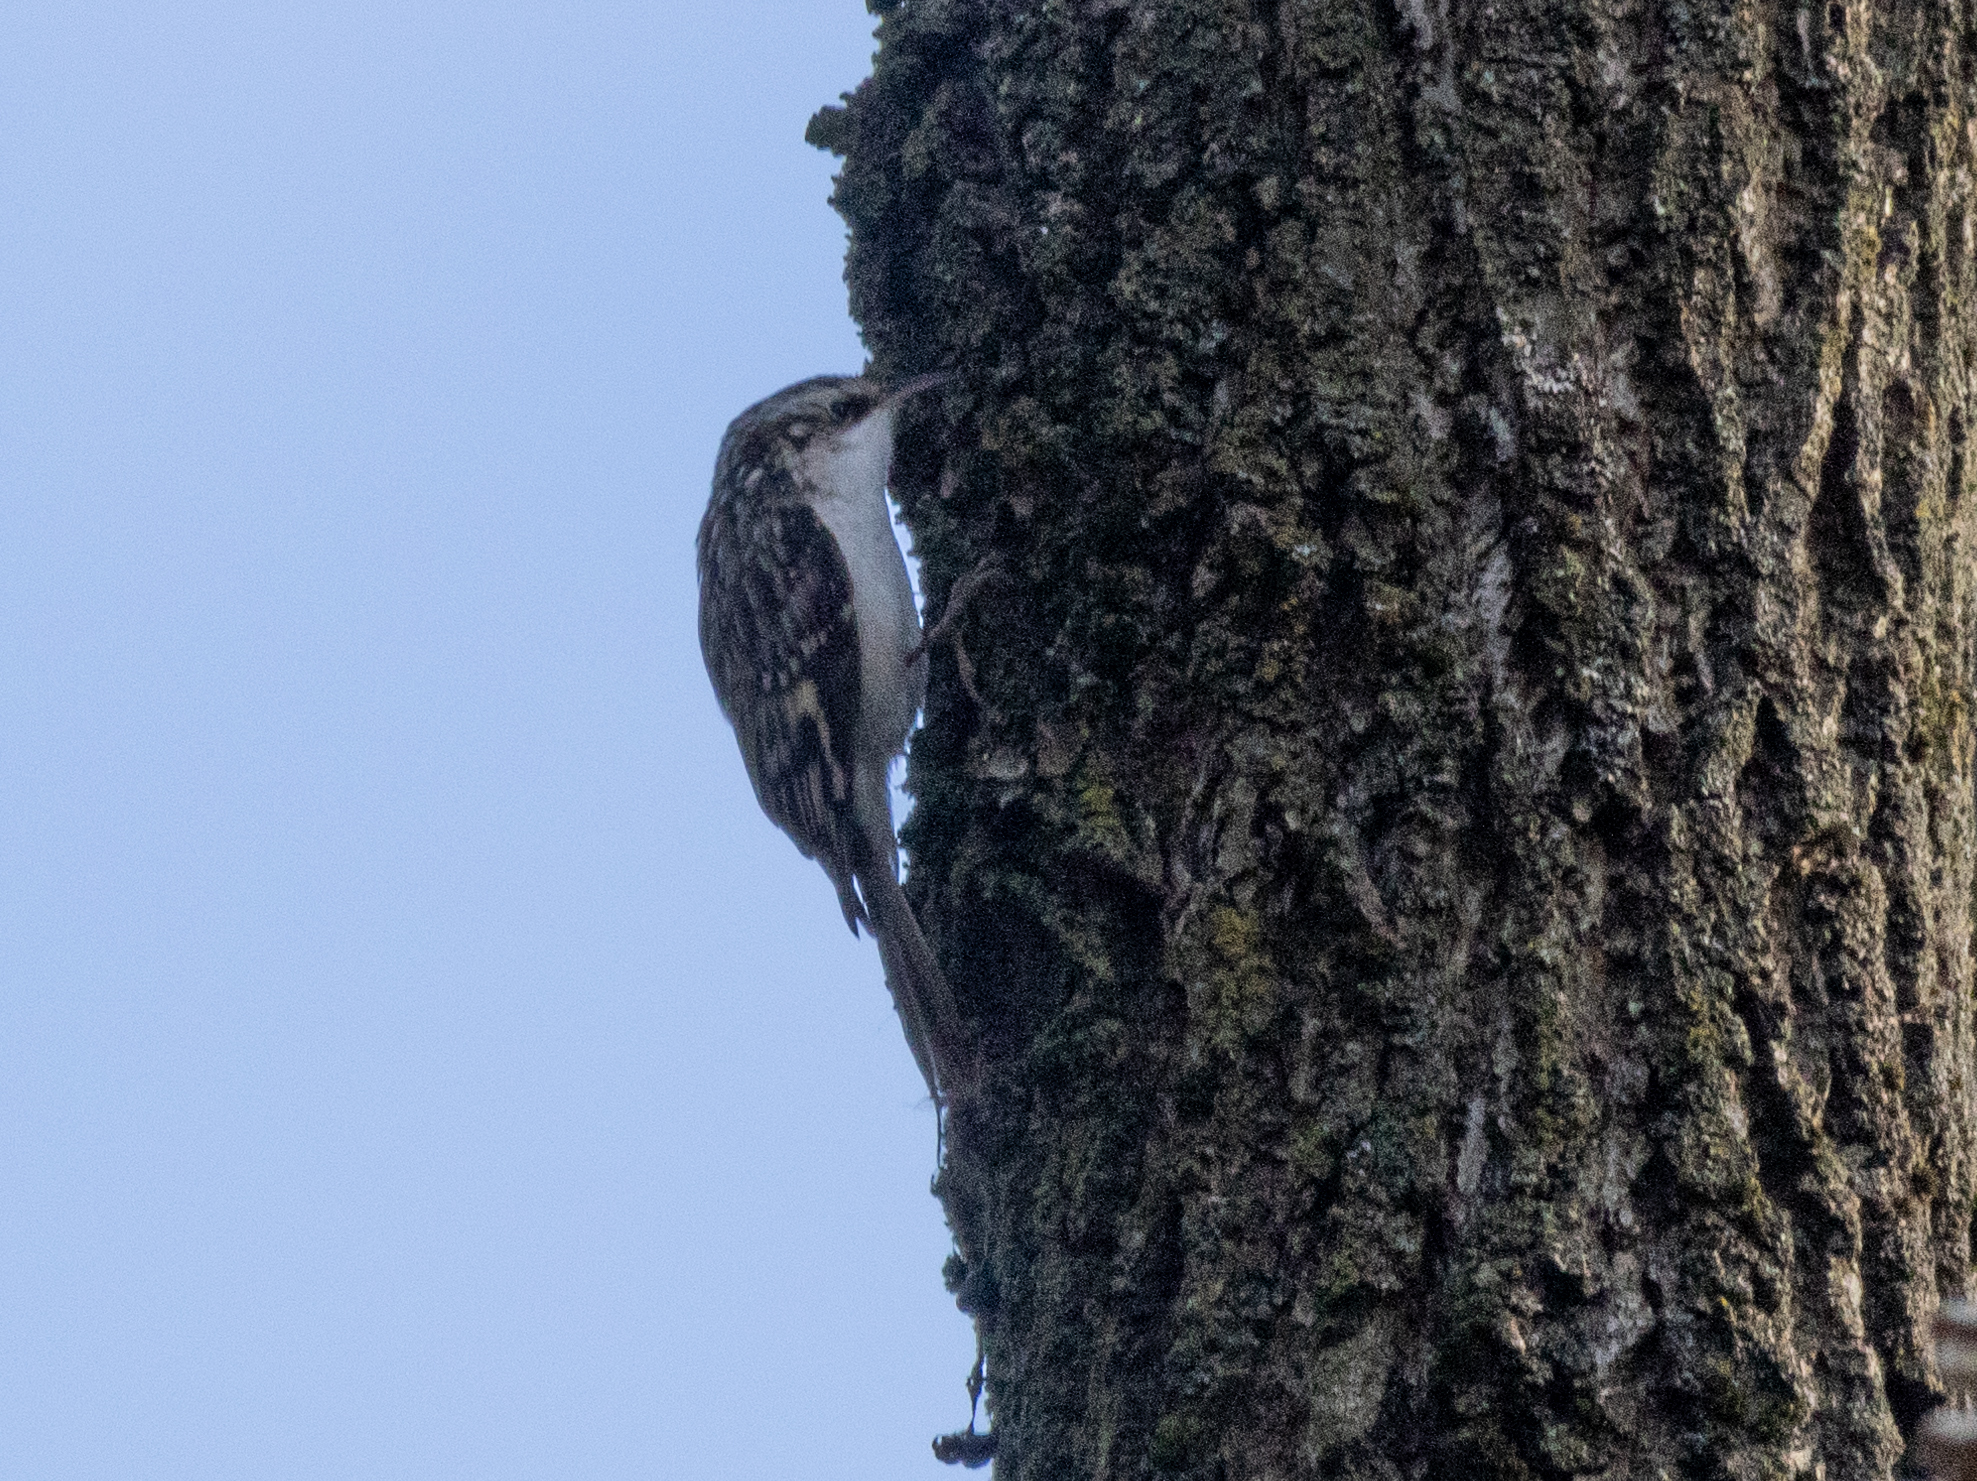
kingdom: Animalia
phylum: Chordata
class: Aves
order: Passeriformes
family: Certhiidae
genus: Certhia
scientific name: Certhia americana
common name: Brown creeper
